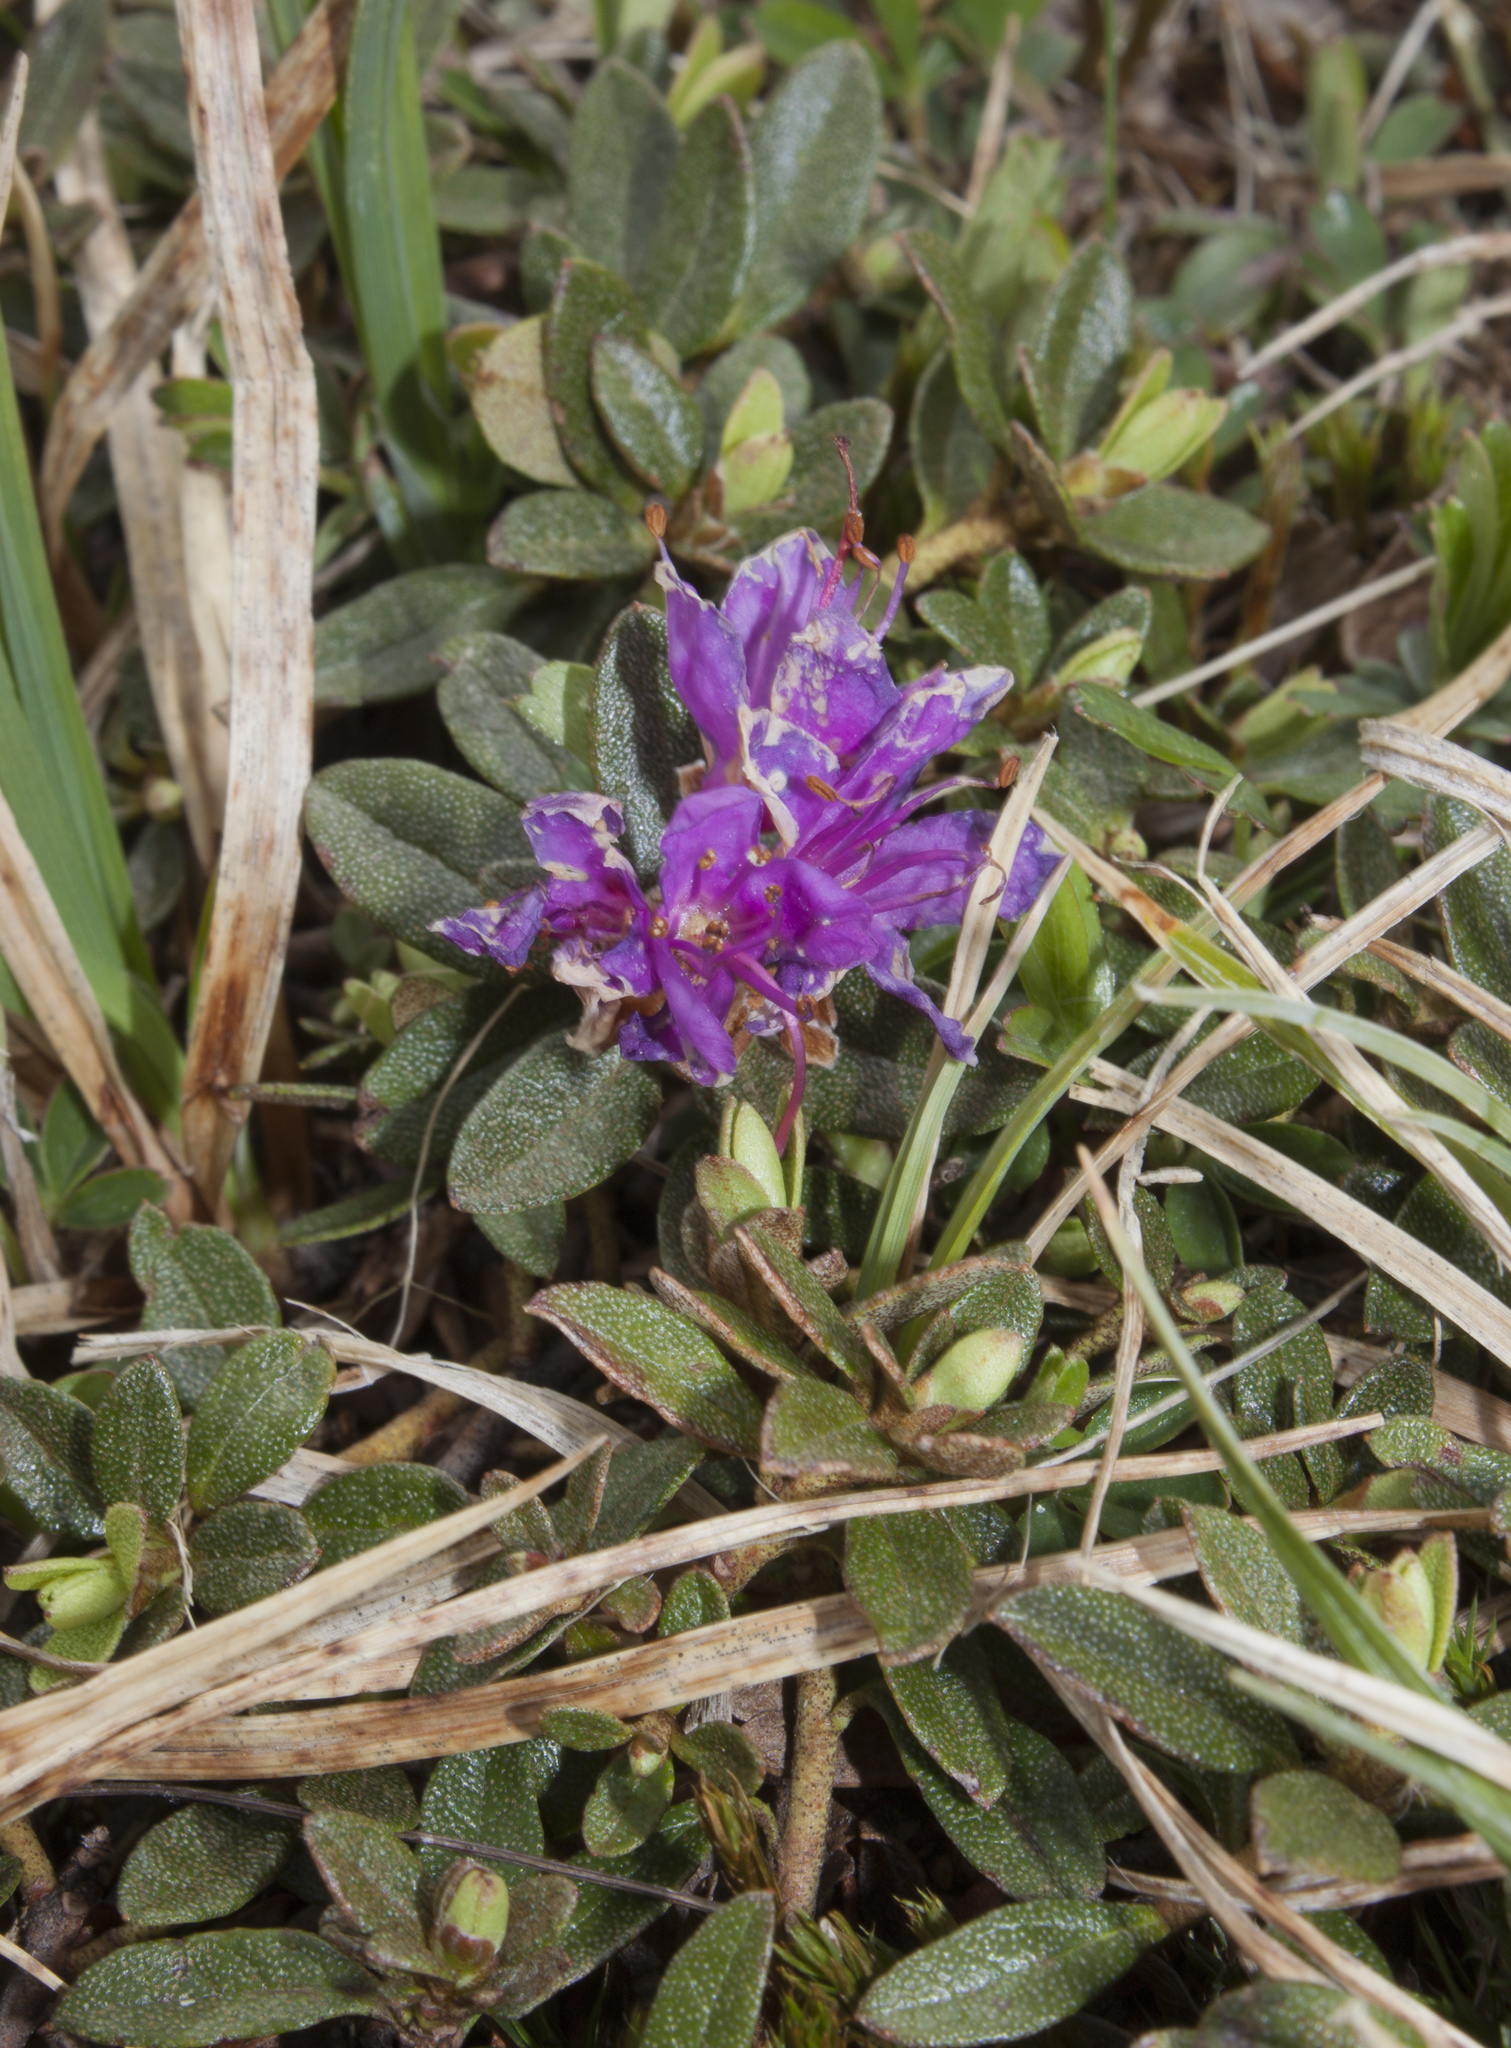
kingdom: Plantae
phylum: Tracheophyta
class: Magnoliopsida
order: Ericales
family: Ericaceae
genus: Rhododendron
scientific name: Rhododendron lapponicum
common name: Lapland rhododendron
